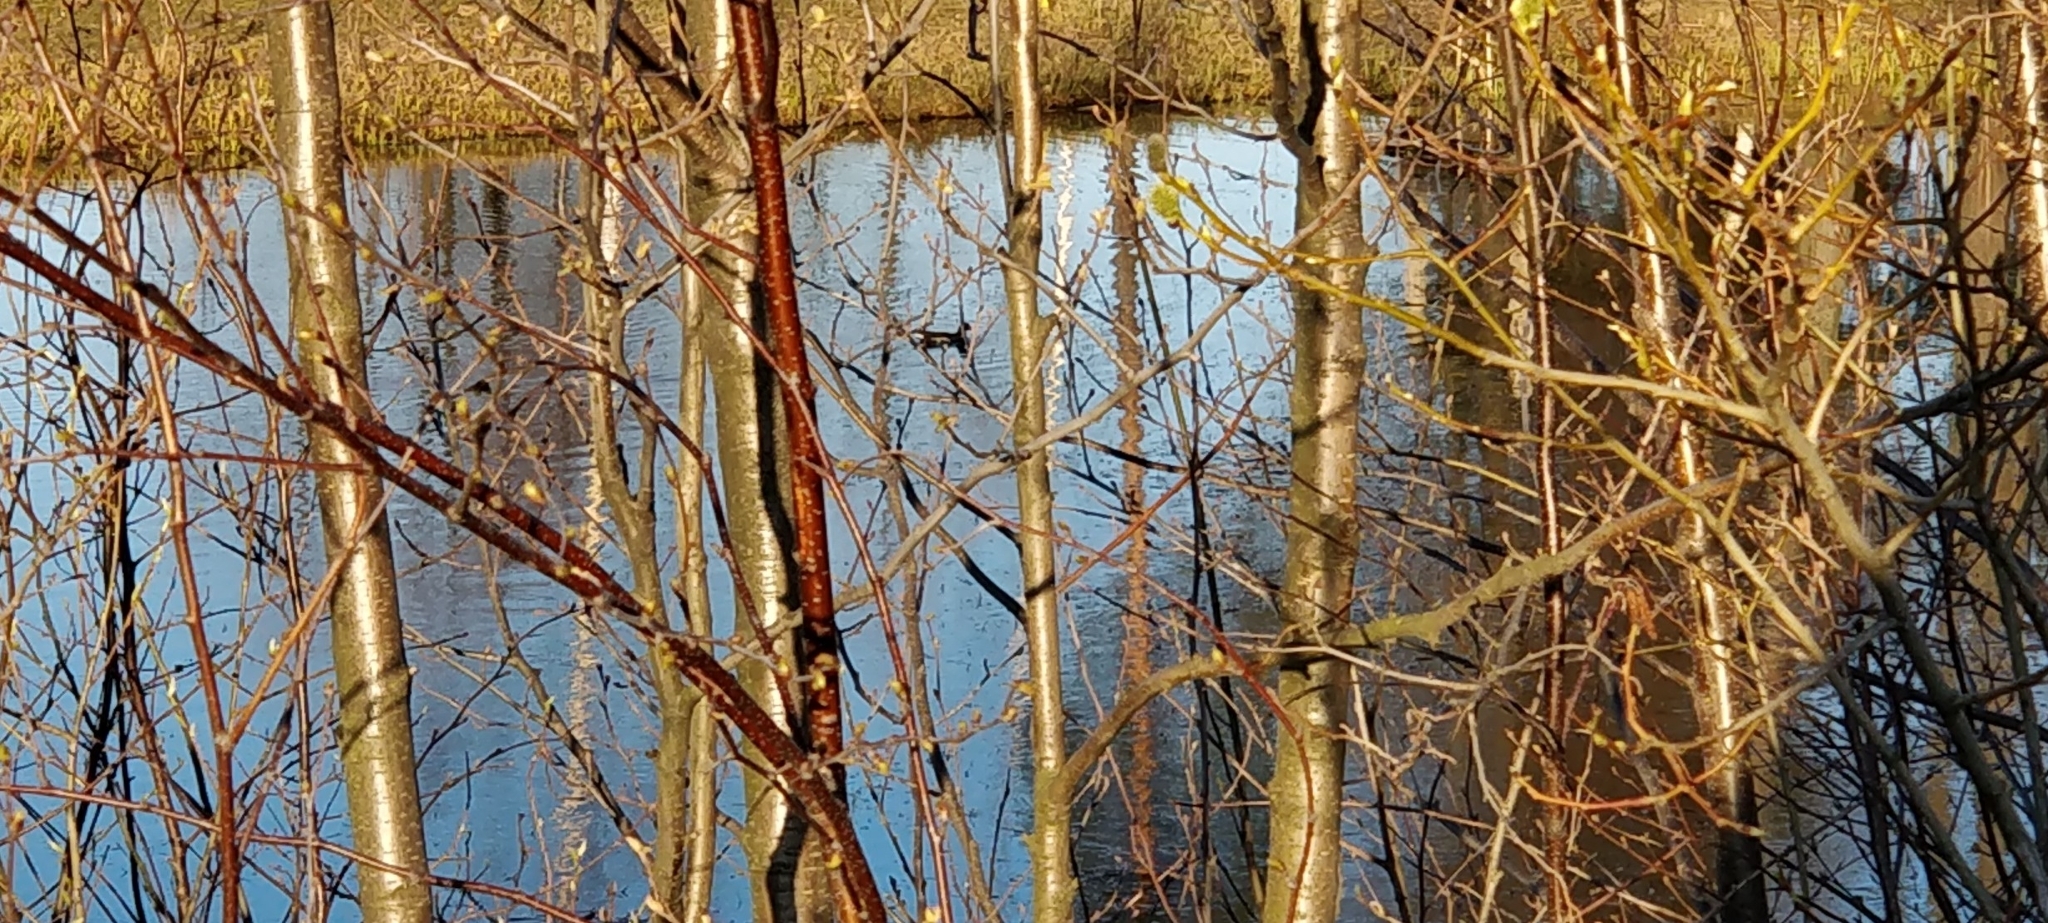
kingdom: Animalia
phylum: Chordata
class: Aves
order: Gruiformes
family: Rallidae
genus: Gallinula
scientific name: Gallinula chloropus
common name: Common moorhen
